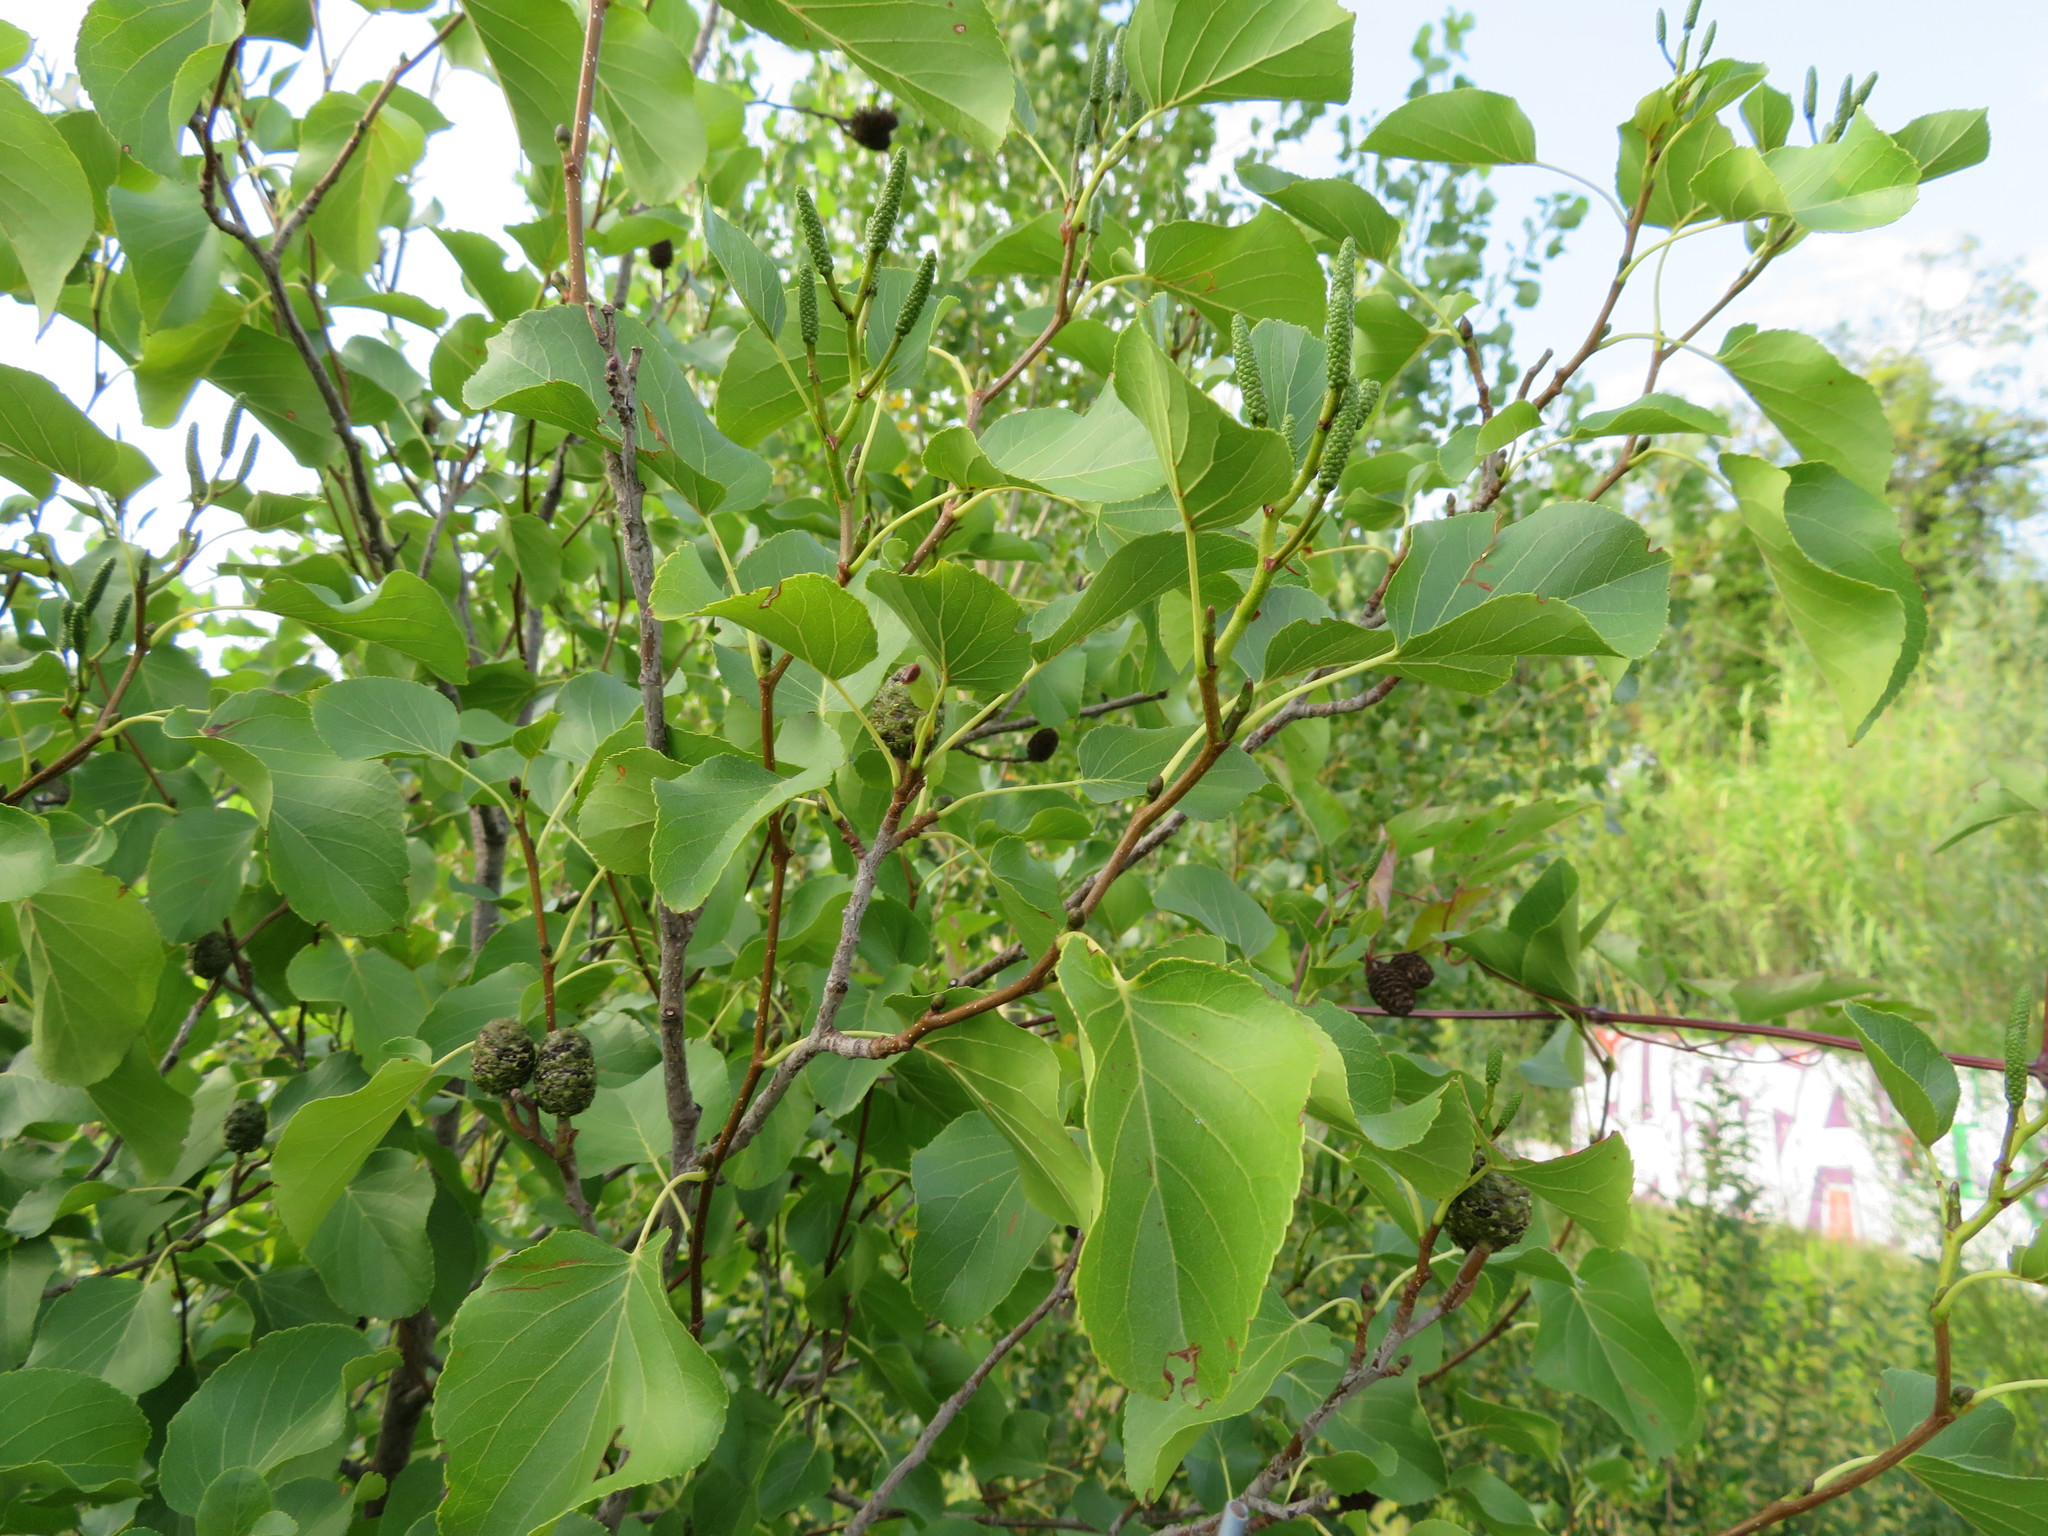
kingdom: Plantae
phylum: Tracheophyta
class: Magnoliopsida
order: Fagales
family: Betulaceae
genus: Alnus
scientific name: Alnus cordata
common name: Italian alder
